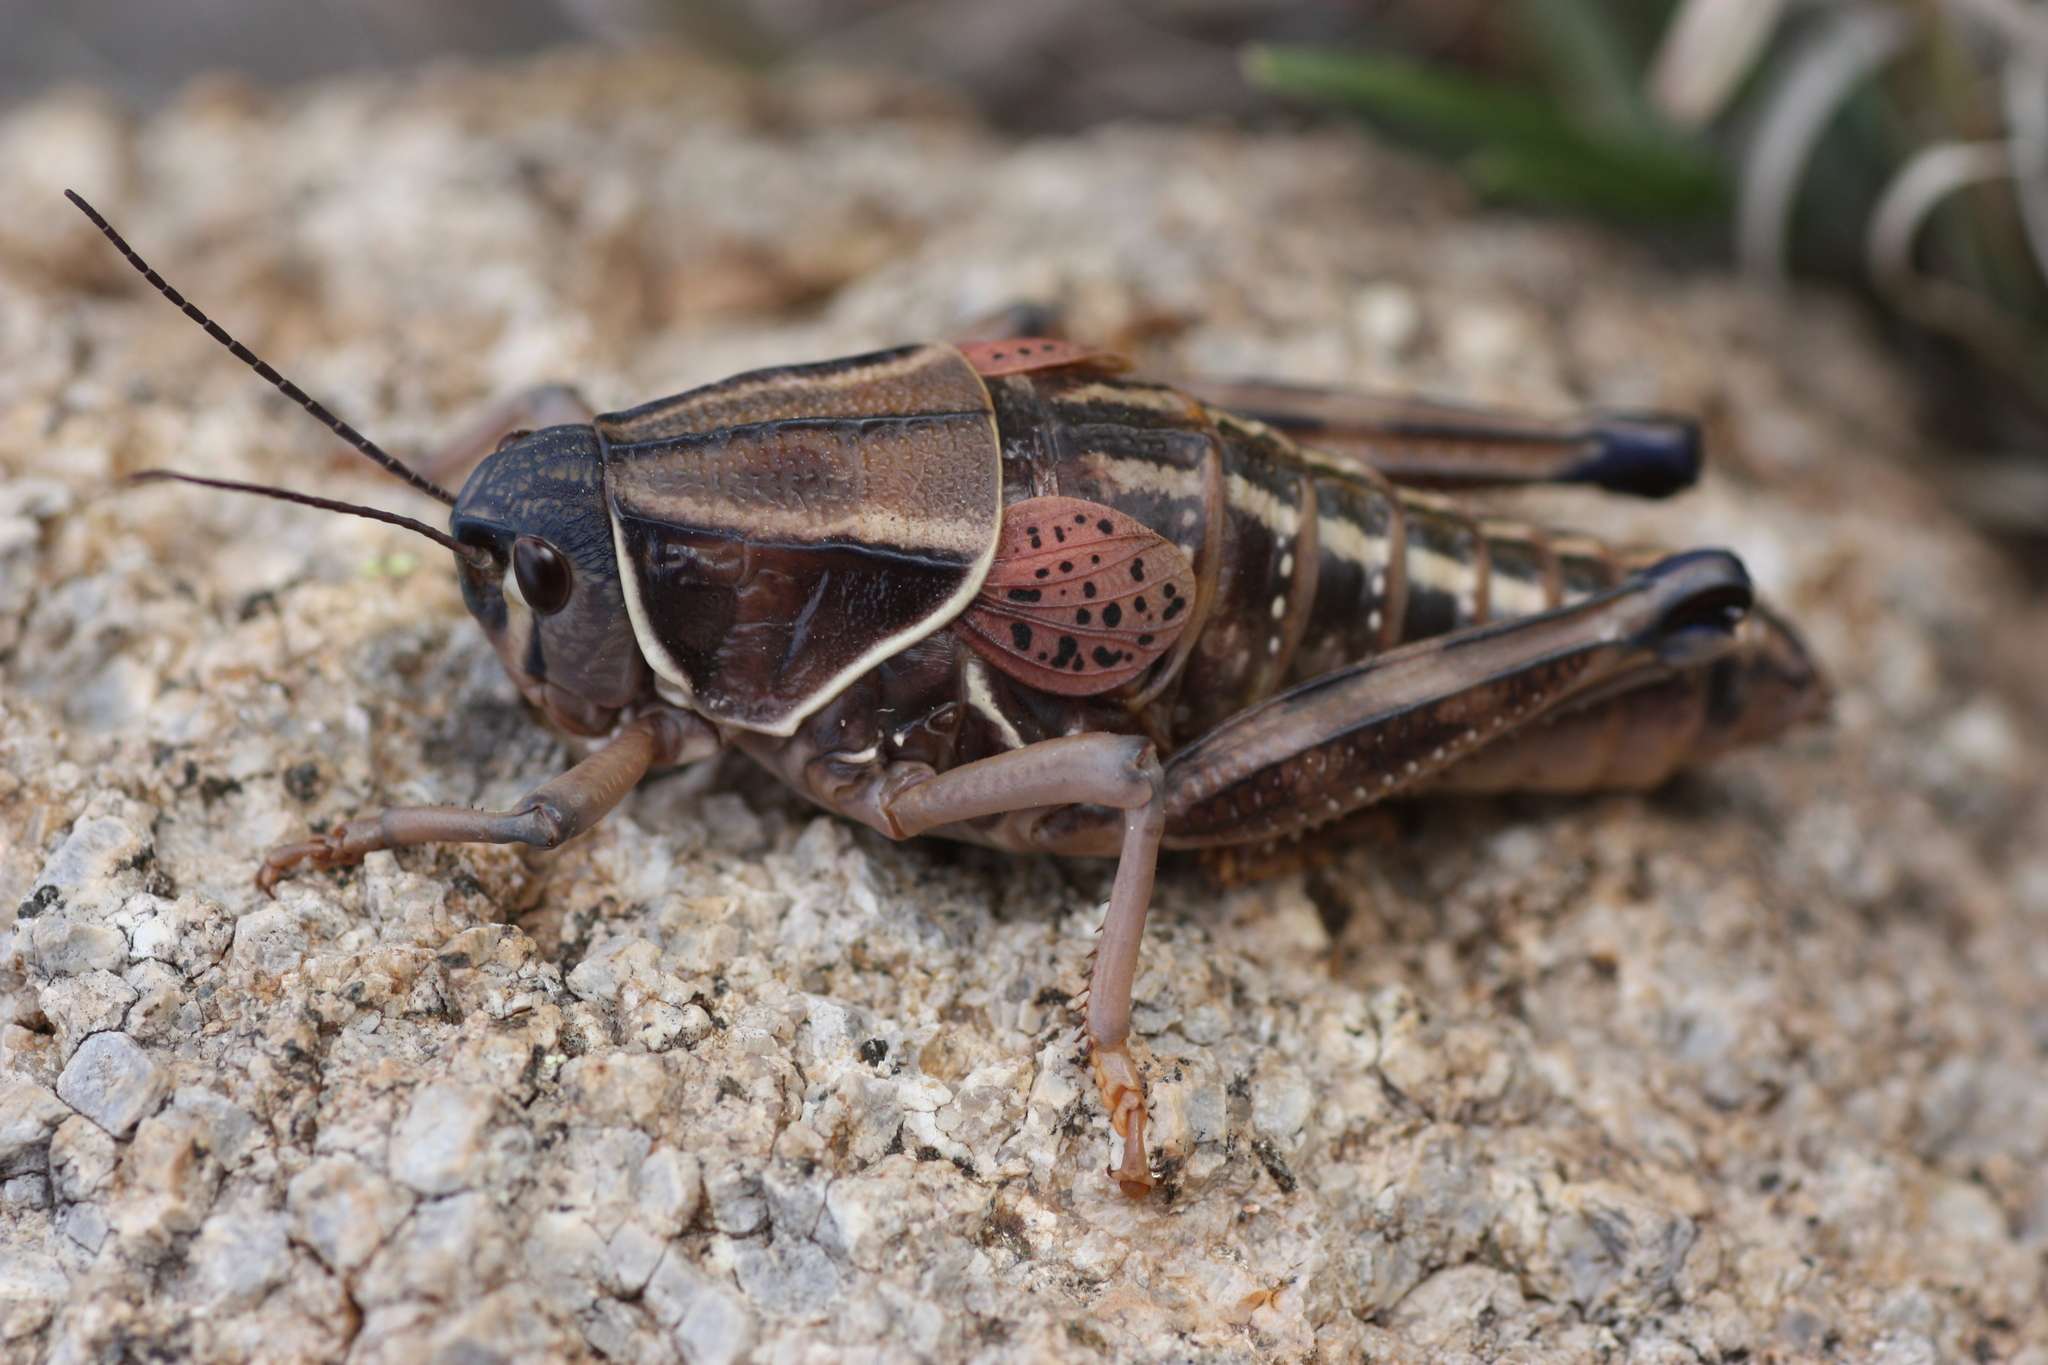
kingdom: Animalia
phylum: Arthropoda
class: Insecta
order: Orthoptera
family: Romaleidae
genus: Brachystola
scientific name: Brachystola magna
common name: Plains lubber grasshopper
